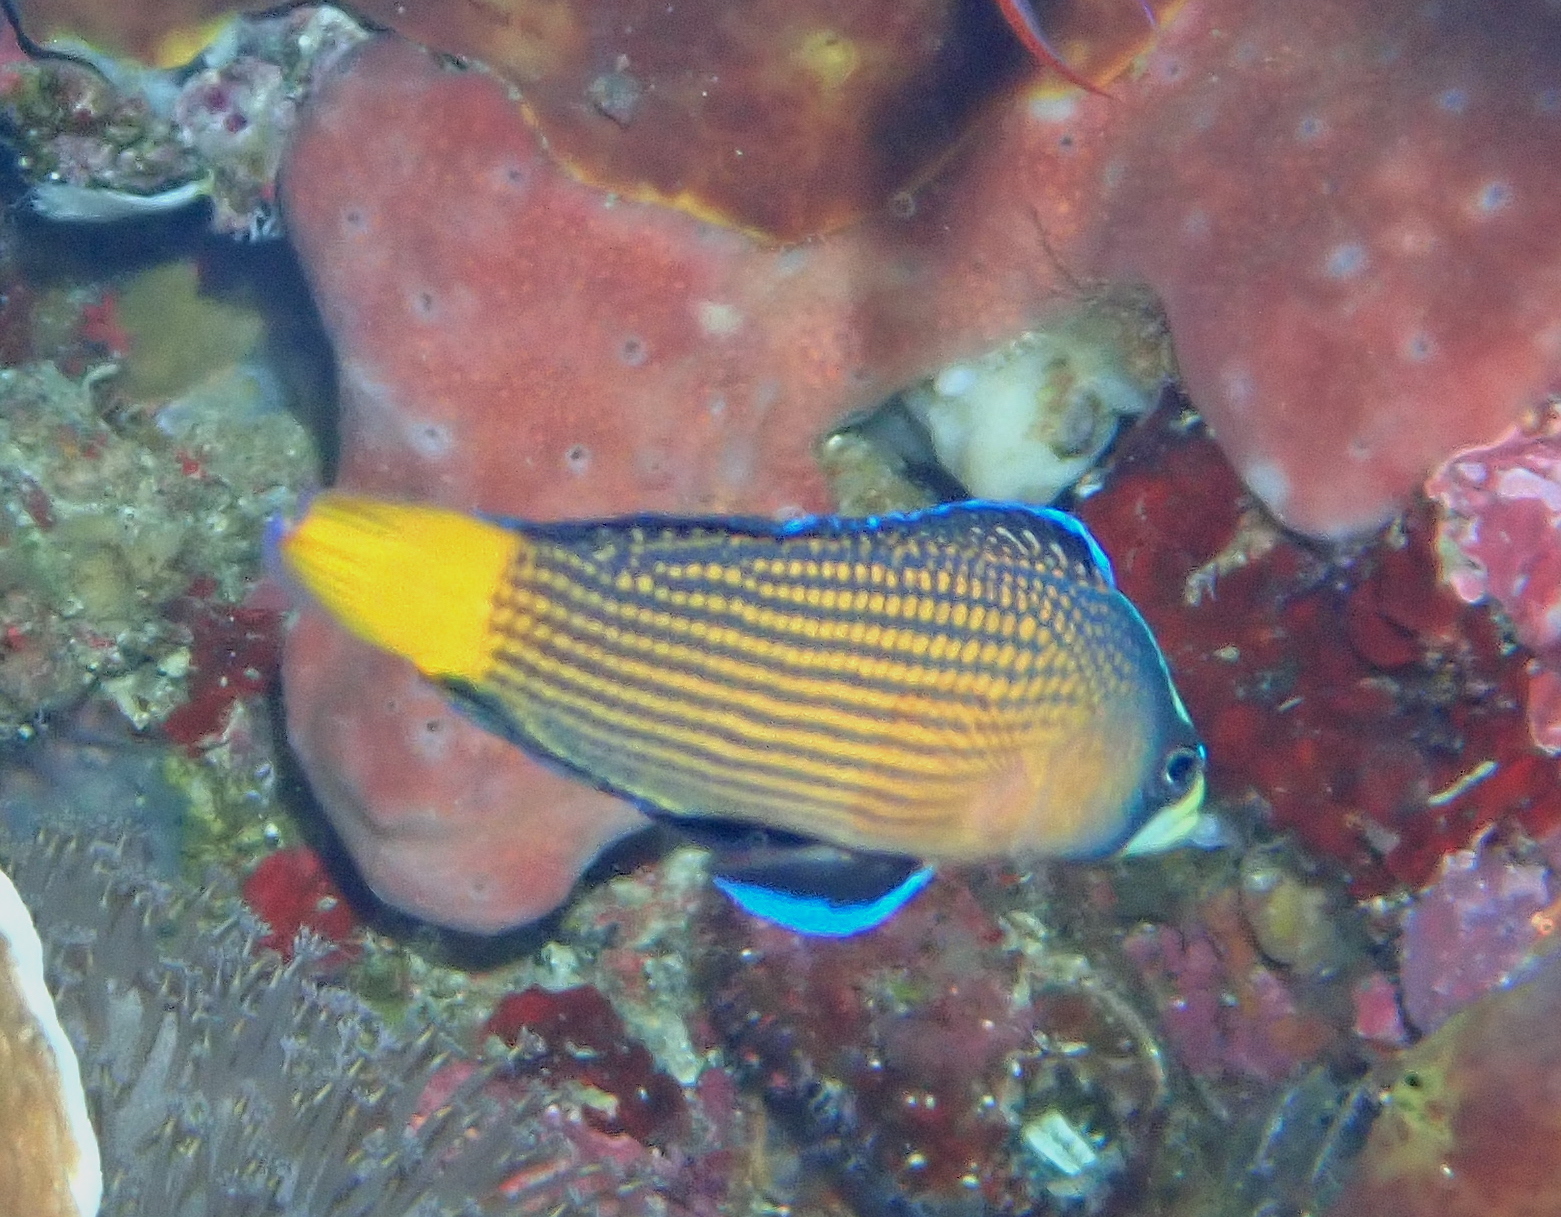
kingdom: Animalia
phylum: Chordata
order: Perciformes
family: Pseudochromidae
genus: Manonichthys
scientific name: Manonichthys splendens
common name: Splendid dottyback
